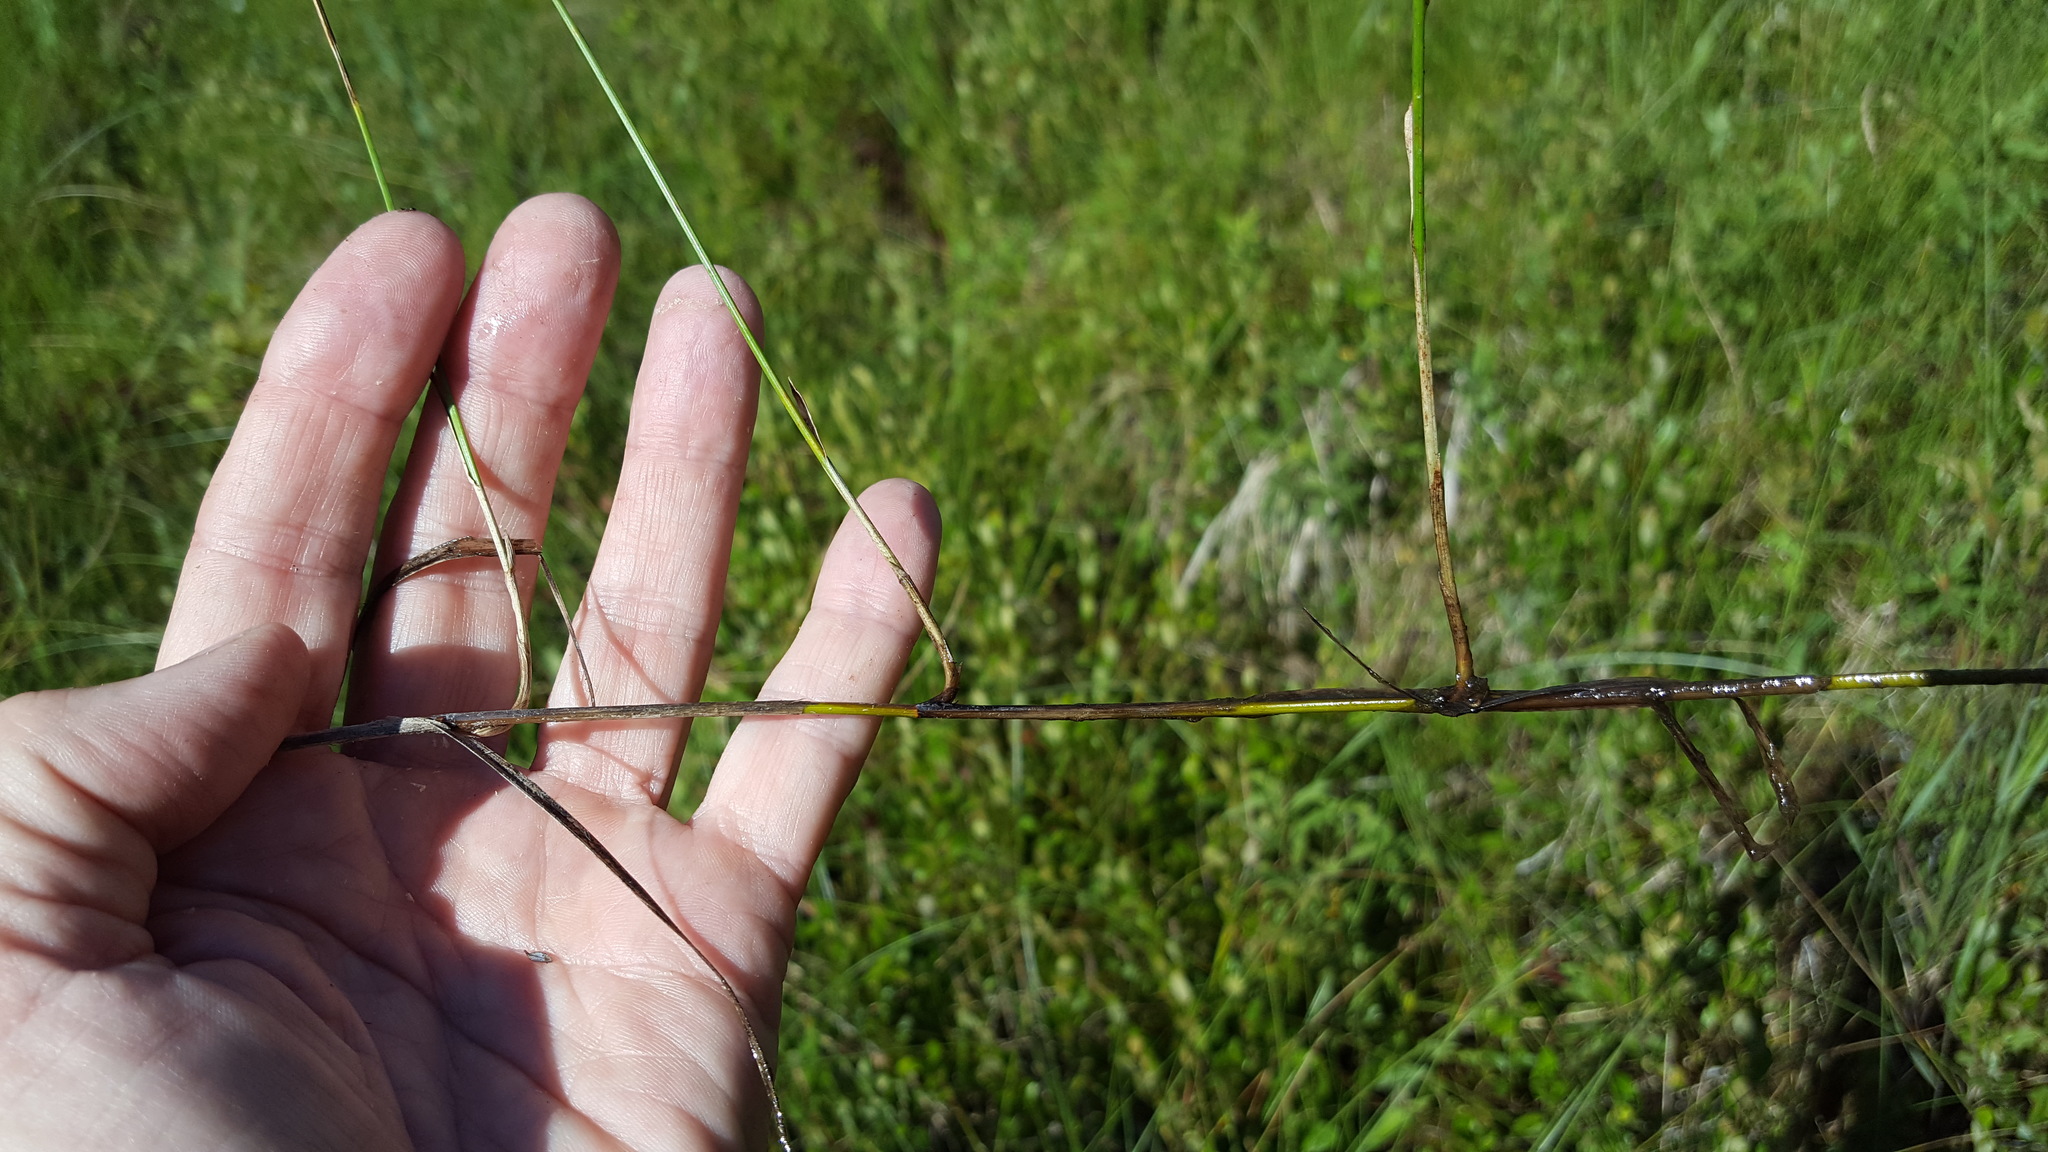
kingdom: Plantae
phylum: Tracheophyta
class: Liliopsida
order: Poales
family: Cyperaceae
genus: Carex
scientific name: Carex chordorrhiza
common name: String sedge
